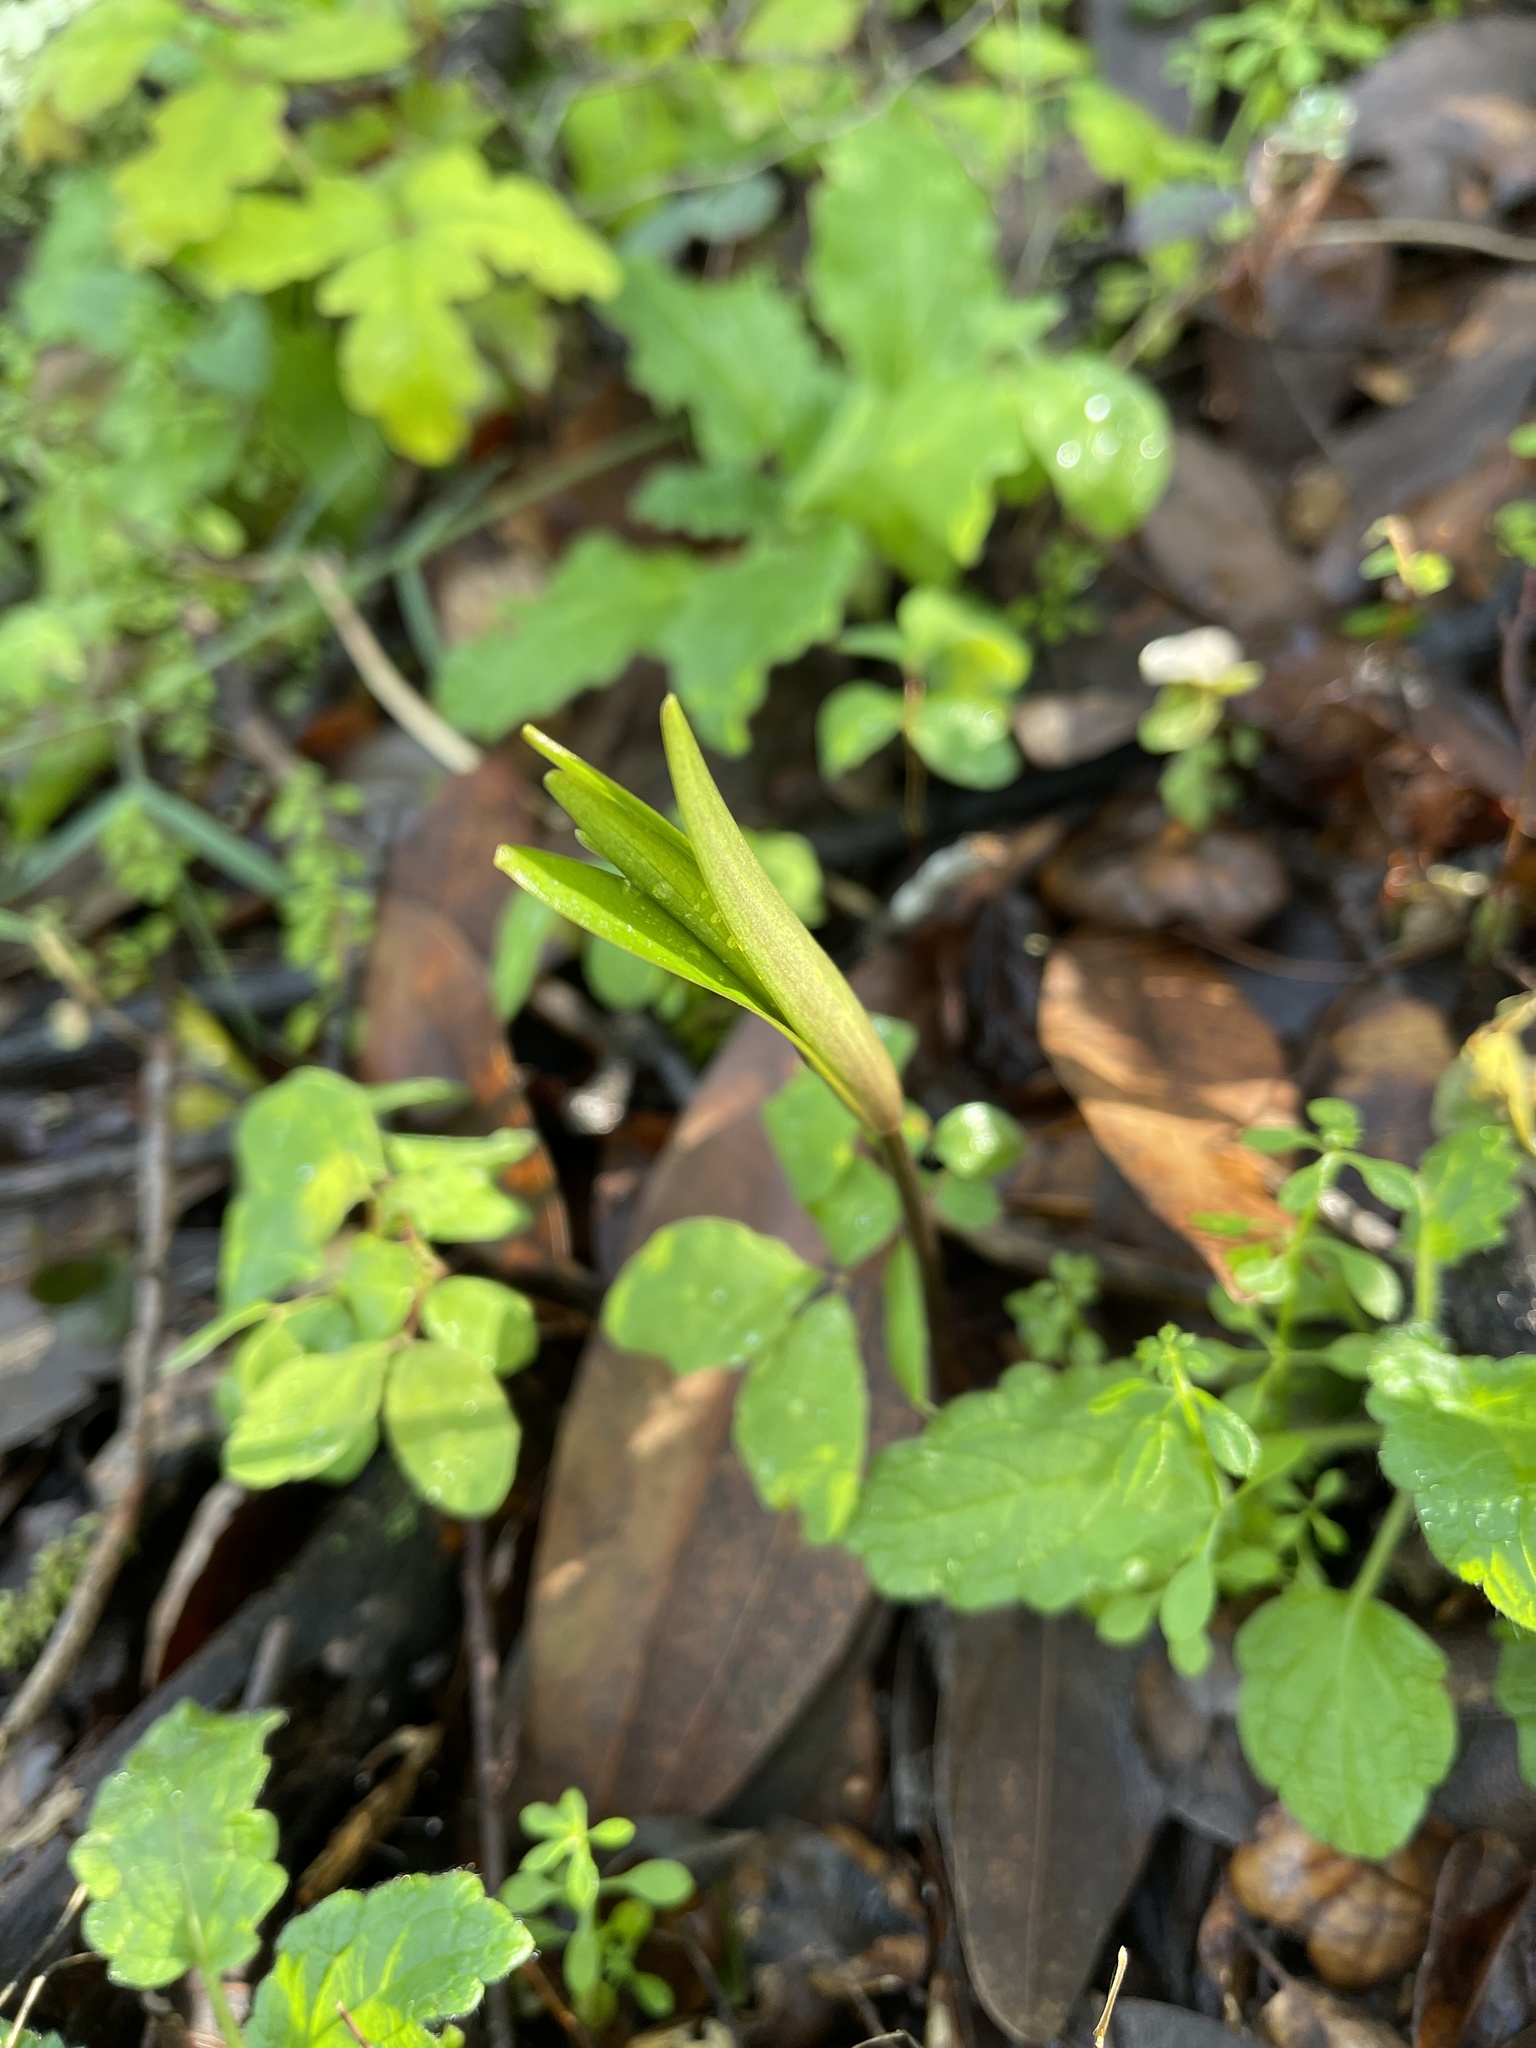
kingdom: Plantae
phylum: Tracheophyta
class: Liliopsida
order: Liliales
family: Liliaceae
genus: Fritillaria
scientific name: Fritillaria affinis
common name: Ojai fritillary
